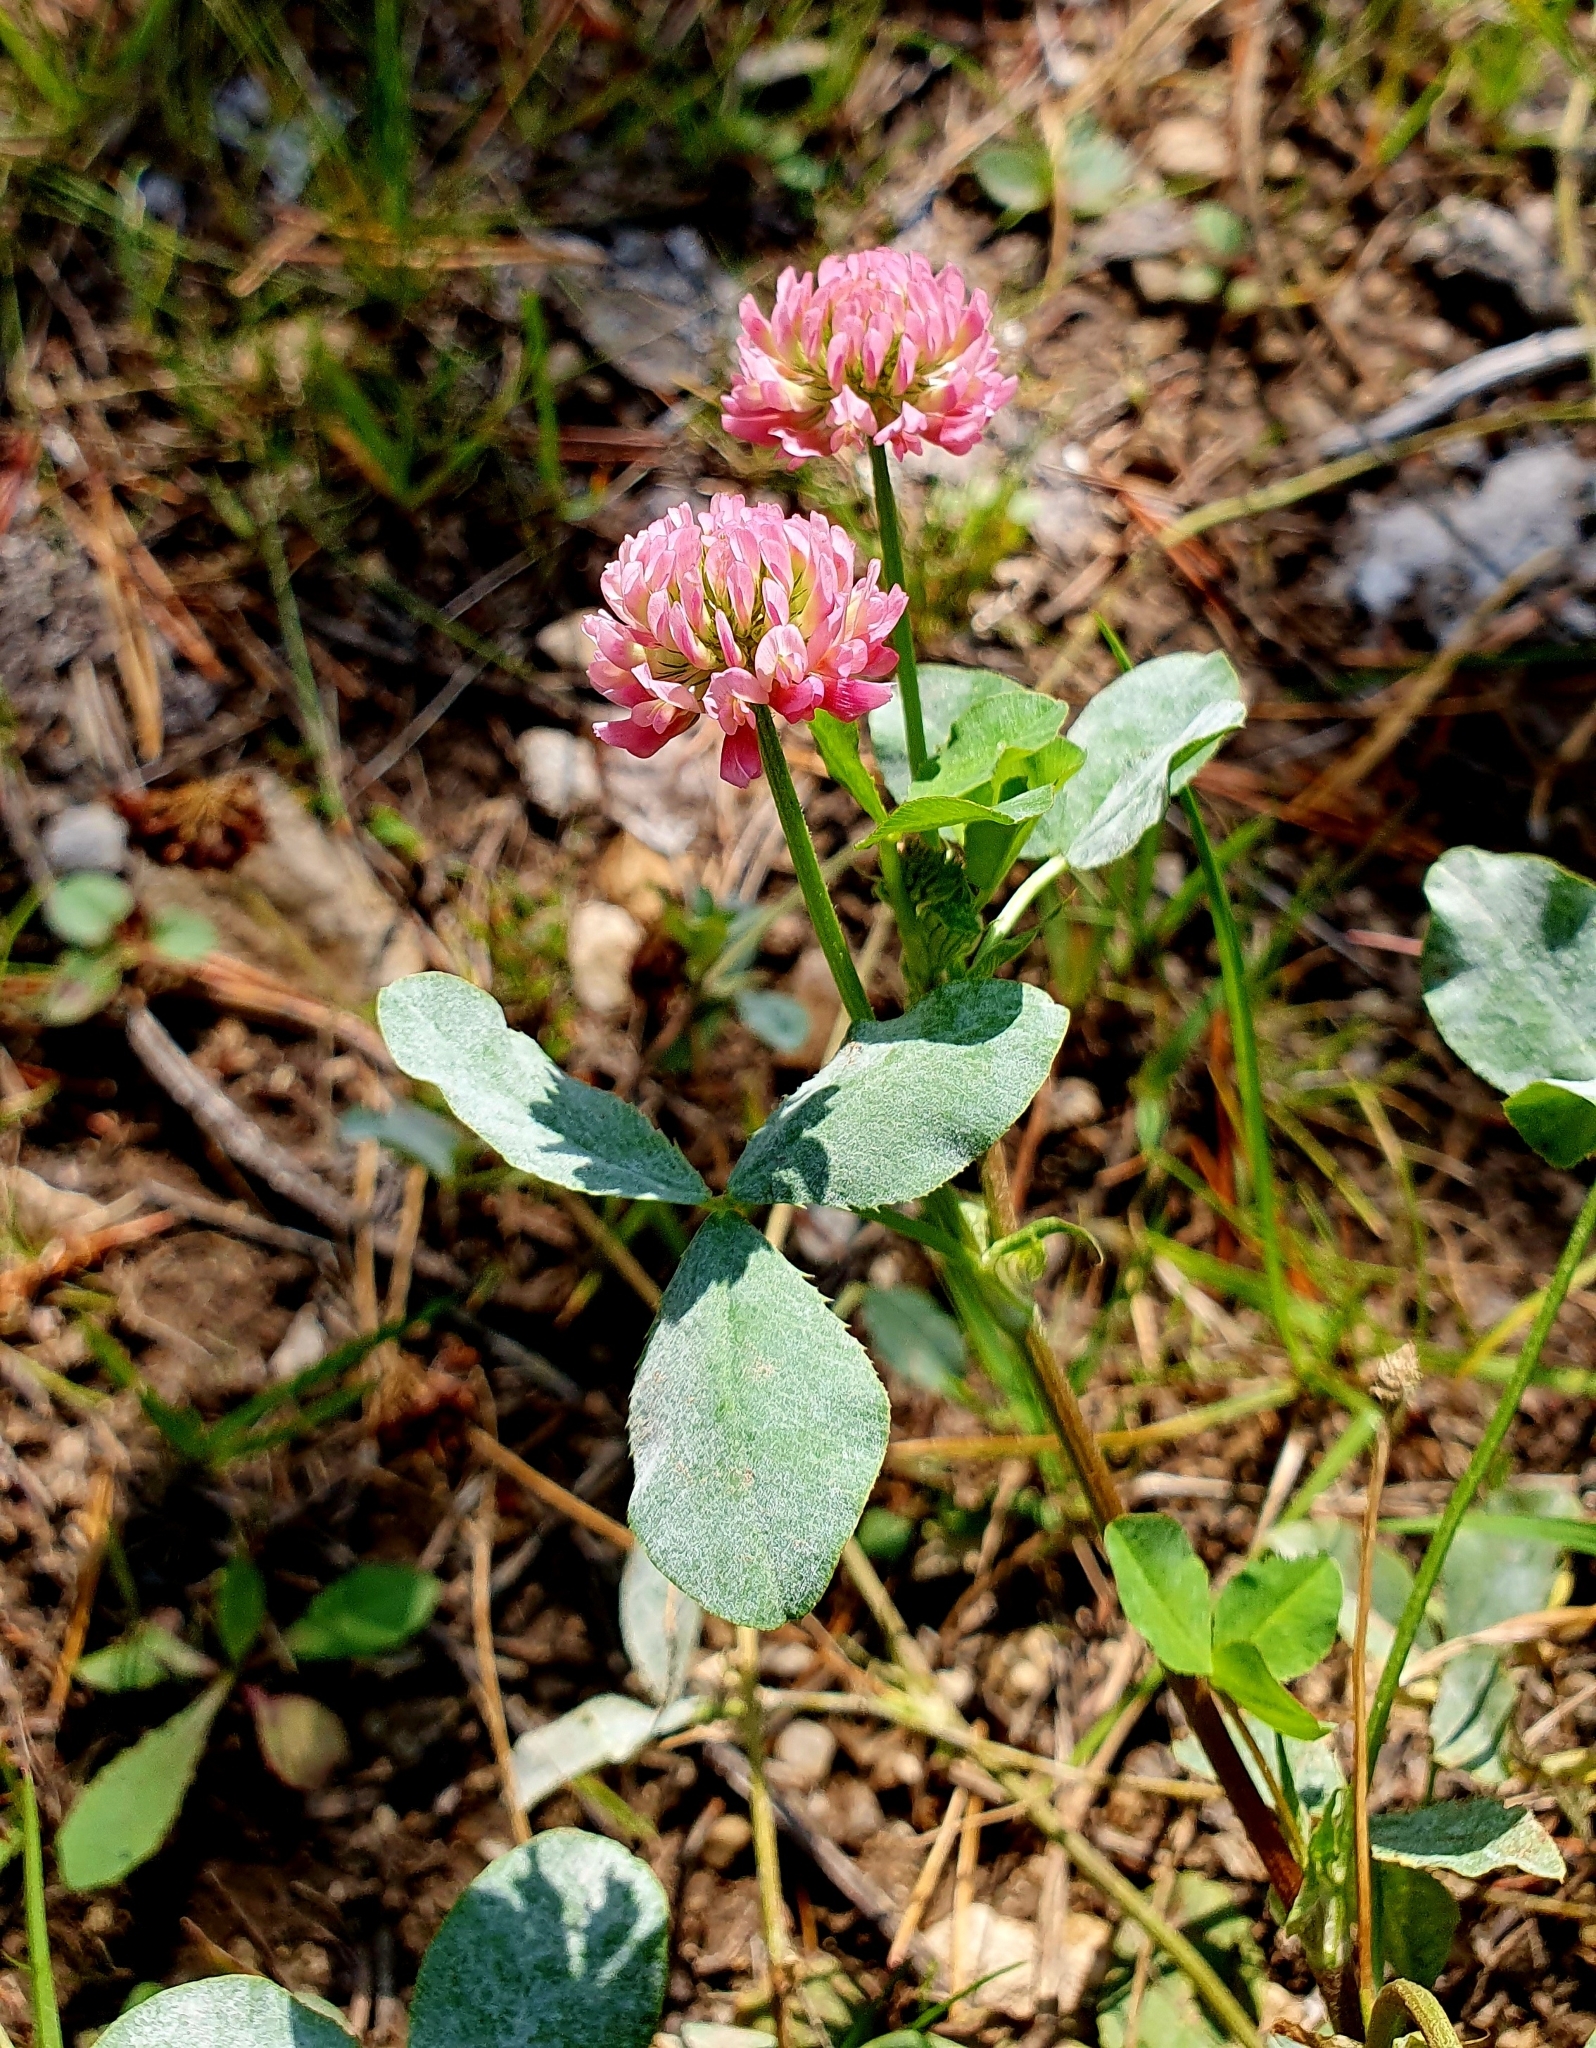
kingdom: Plantae
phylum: Tracheophyta
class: Magnoliopsida
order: Fabales
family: Fabaceae
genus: Trifolium
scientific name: Trifolium hybridum
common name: Alsike clover
